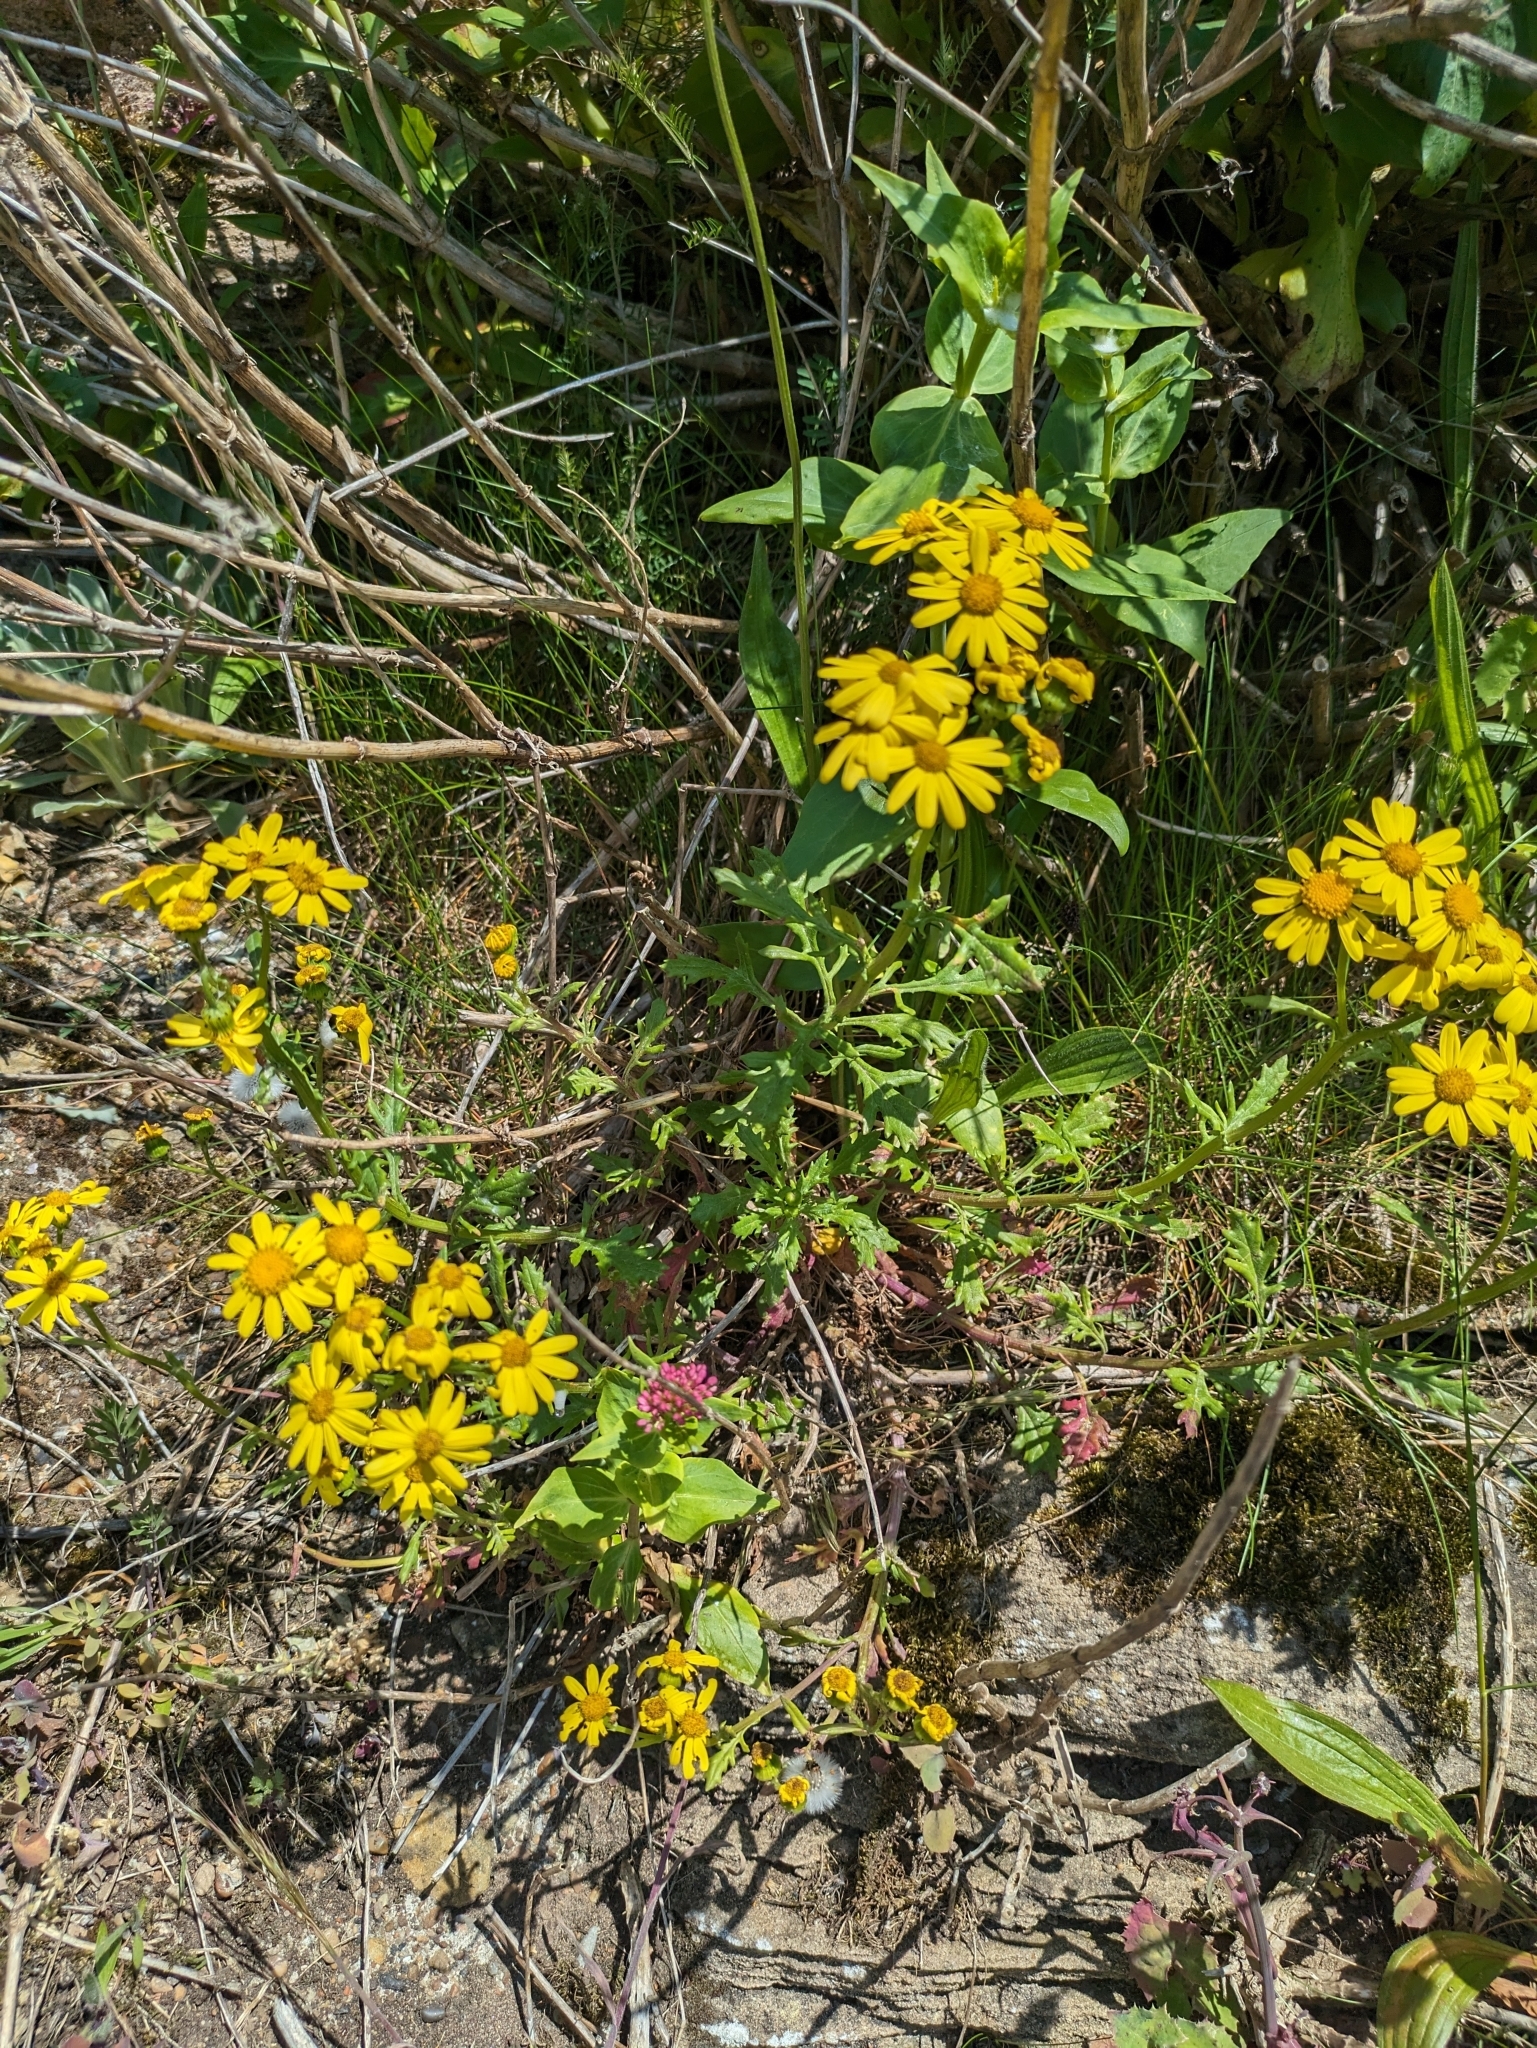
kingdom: Plantae
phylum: Tracheophyta
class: Magnoliopsida
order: Asterales
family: Asteraceae
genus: Senecio
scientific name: Senecio squalidus
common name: Oxford ragwort
